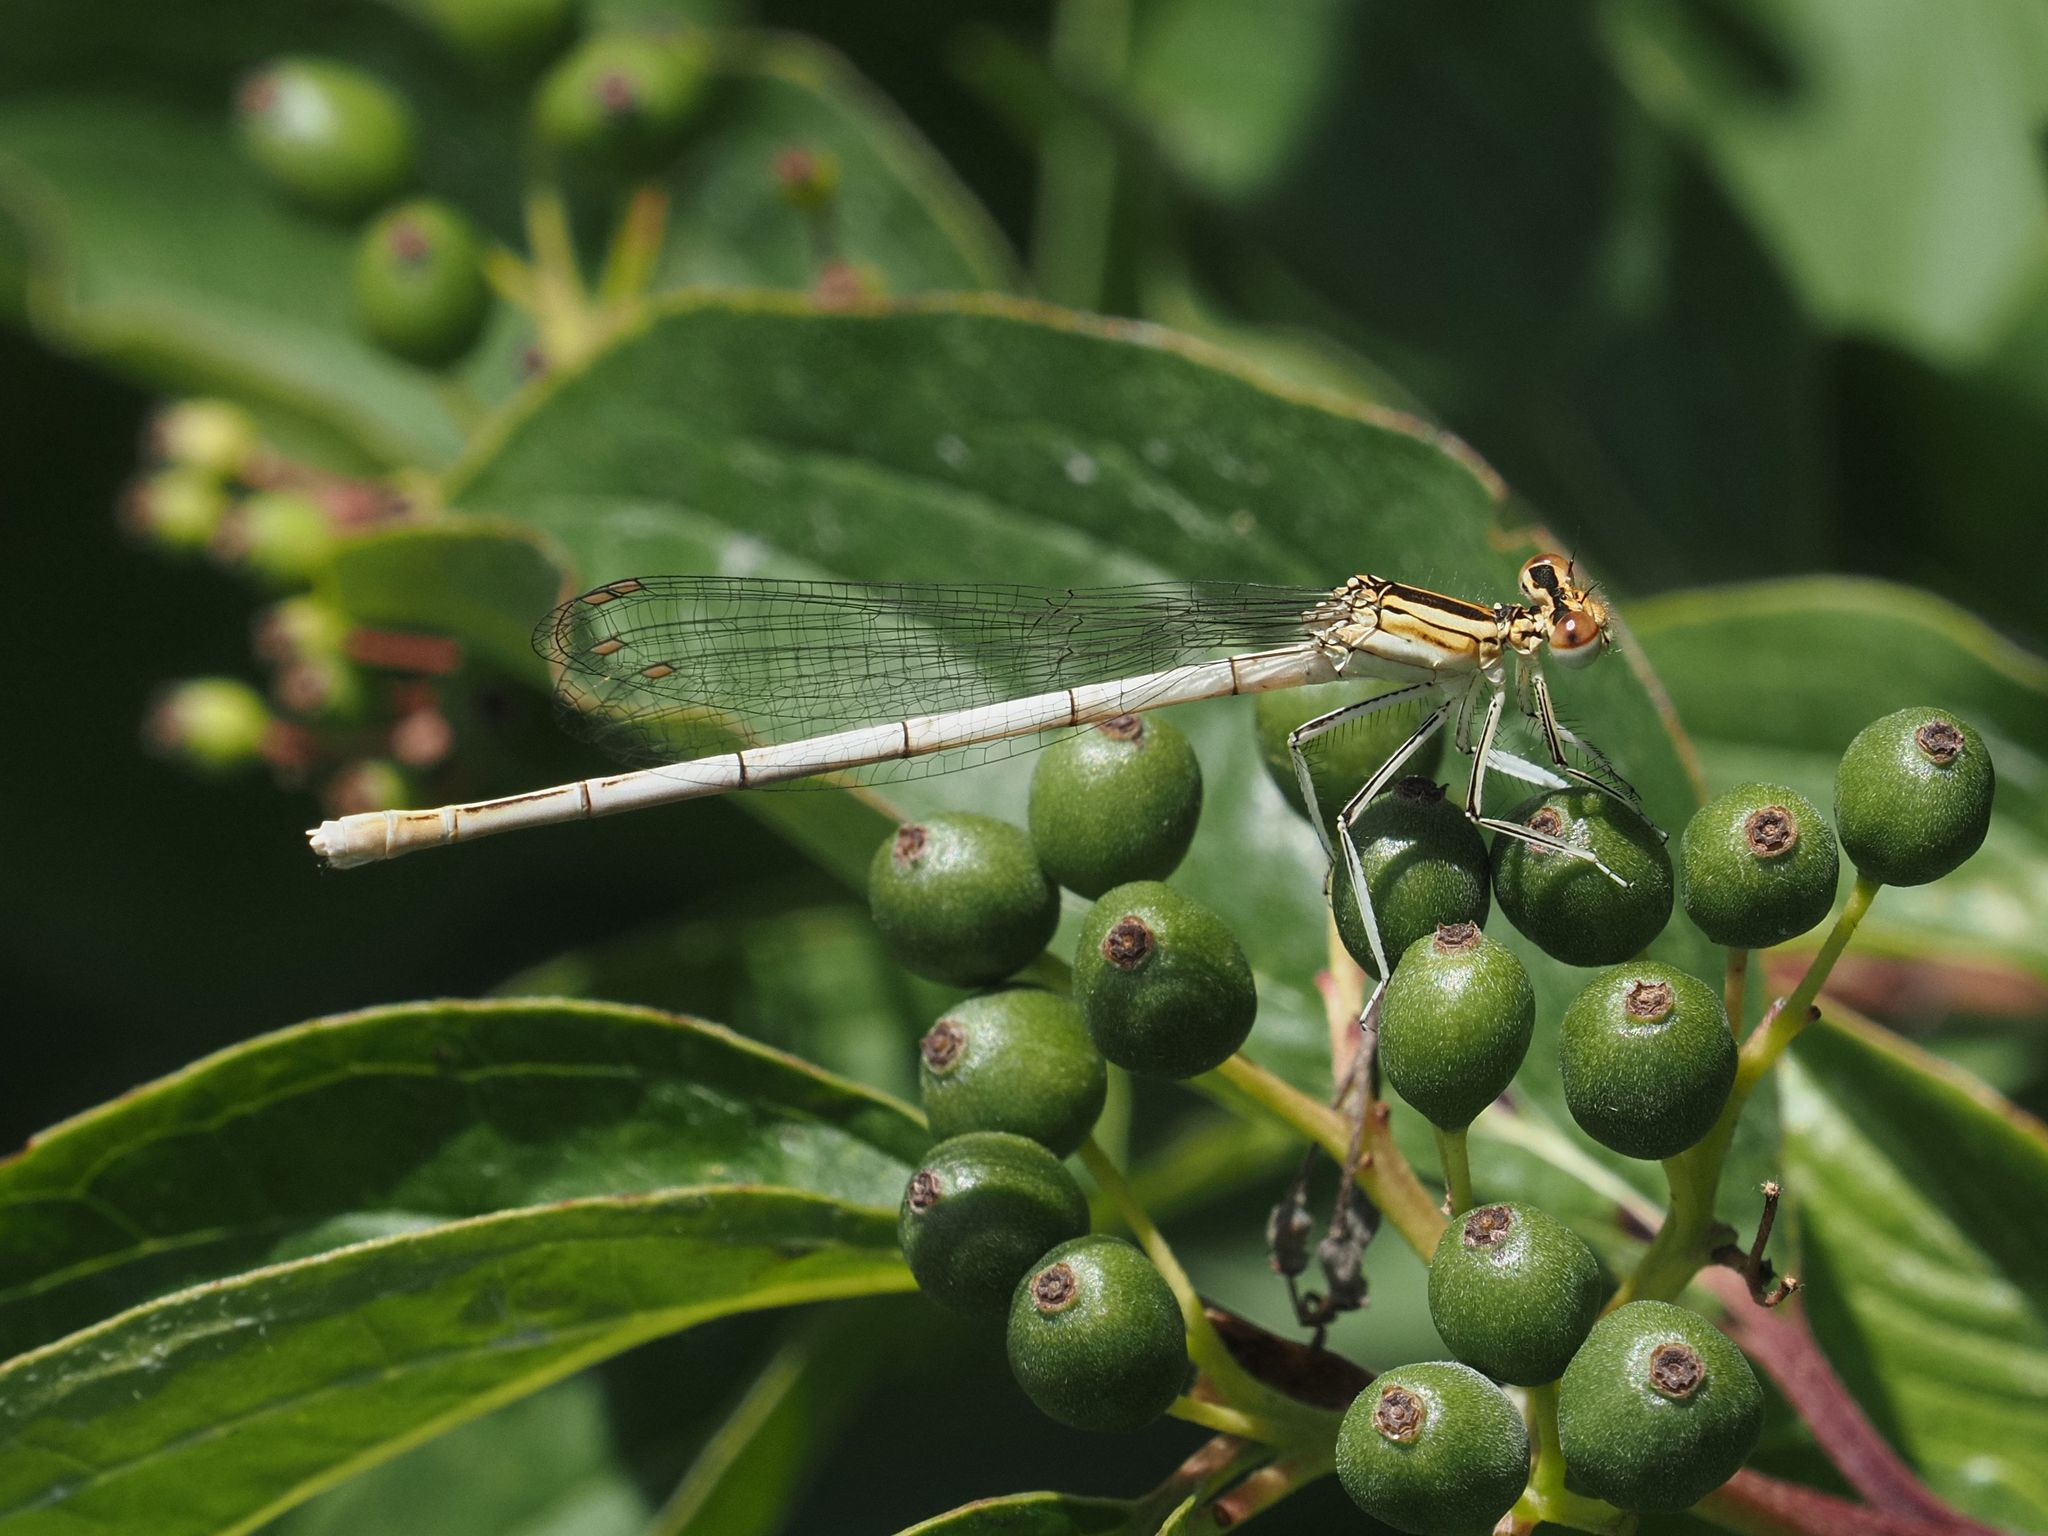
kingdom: Animalia
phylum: Arthropoda
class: Insecta
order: Odonata
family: Platycnemididae
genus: Platycnemis
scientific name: Platycnemis pennipes
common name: White-legged damselfly
